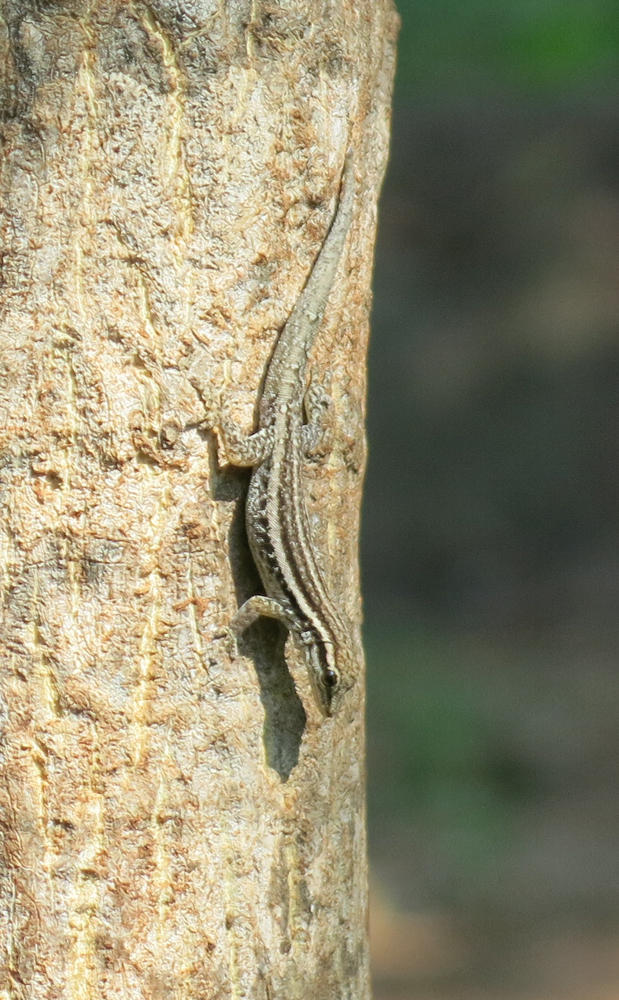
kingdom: Animalia
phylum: Chordata
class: Squamata
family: Gekkonidae
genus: Lygodactylus
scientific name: Lygodactylus capensis
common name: Cape dwarf gecko
